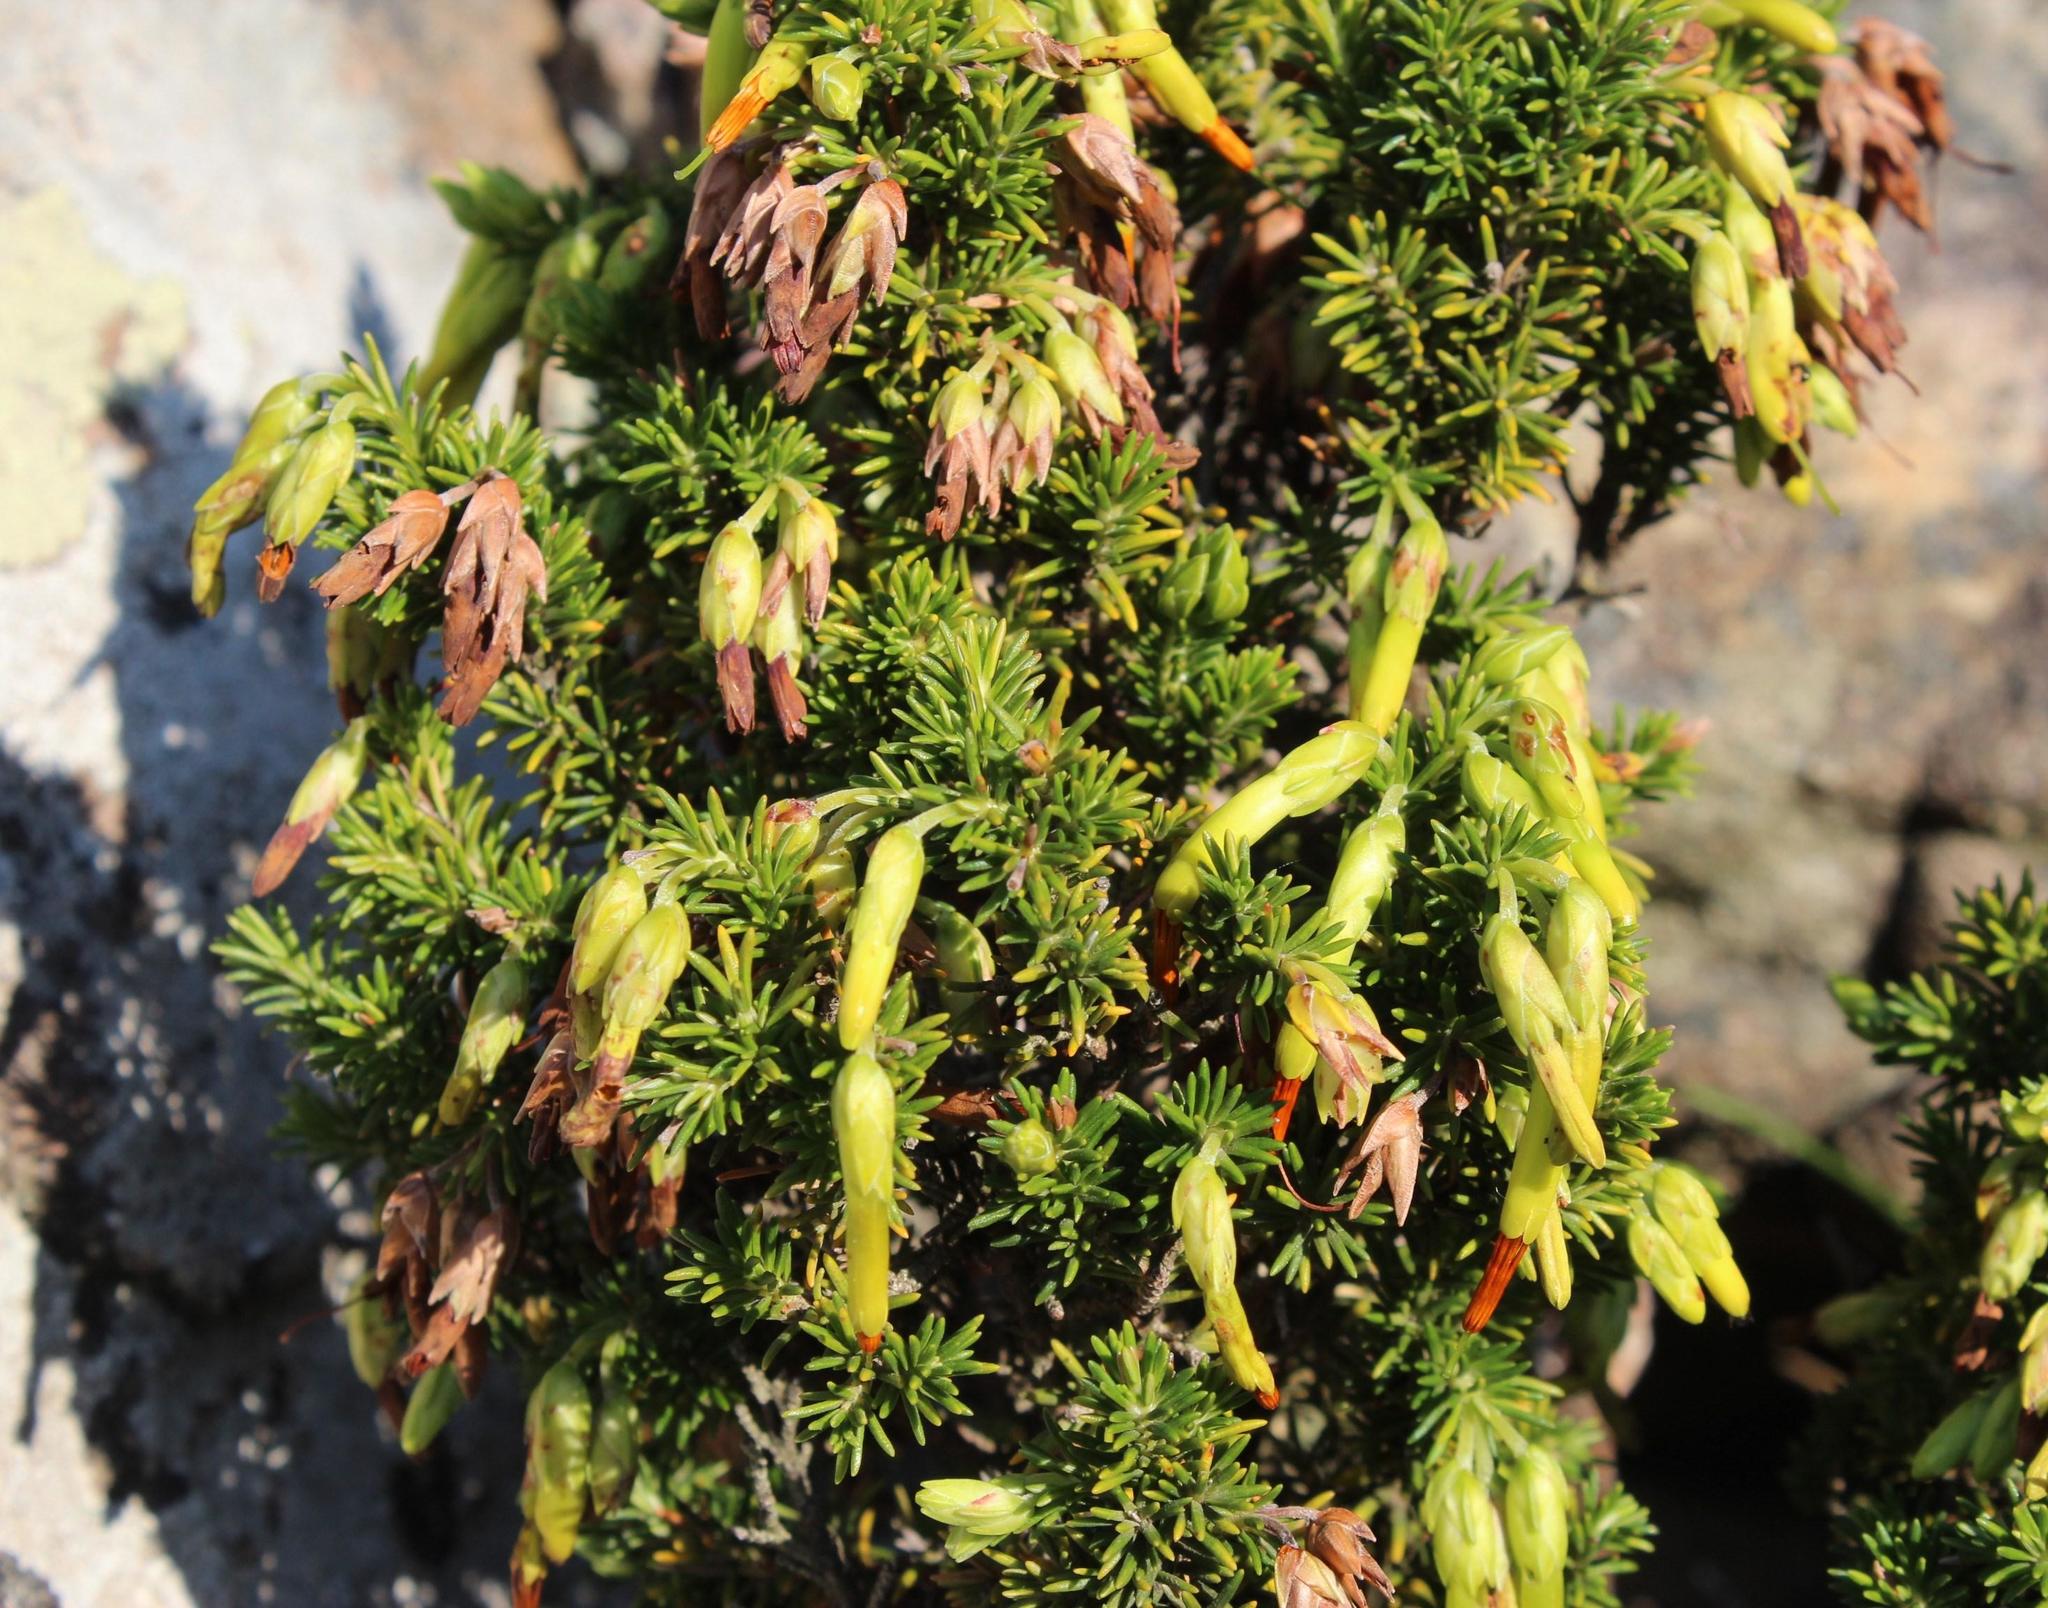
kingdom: Plantae
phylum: Tracheophyta
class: Magnoliopsida
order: Ericales
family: Ericaceae
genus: Erica
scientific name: Erica coccinea
